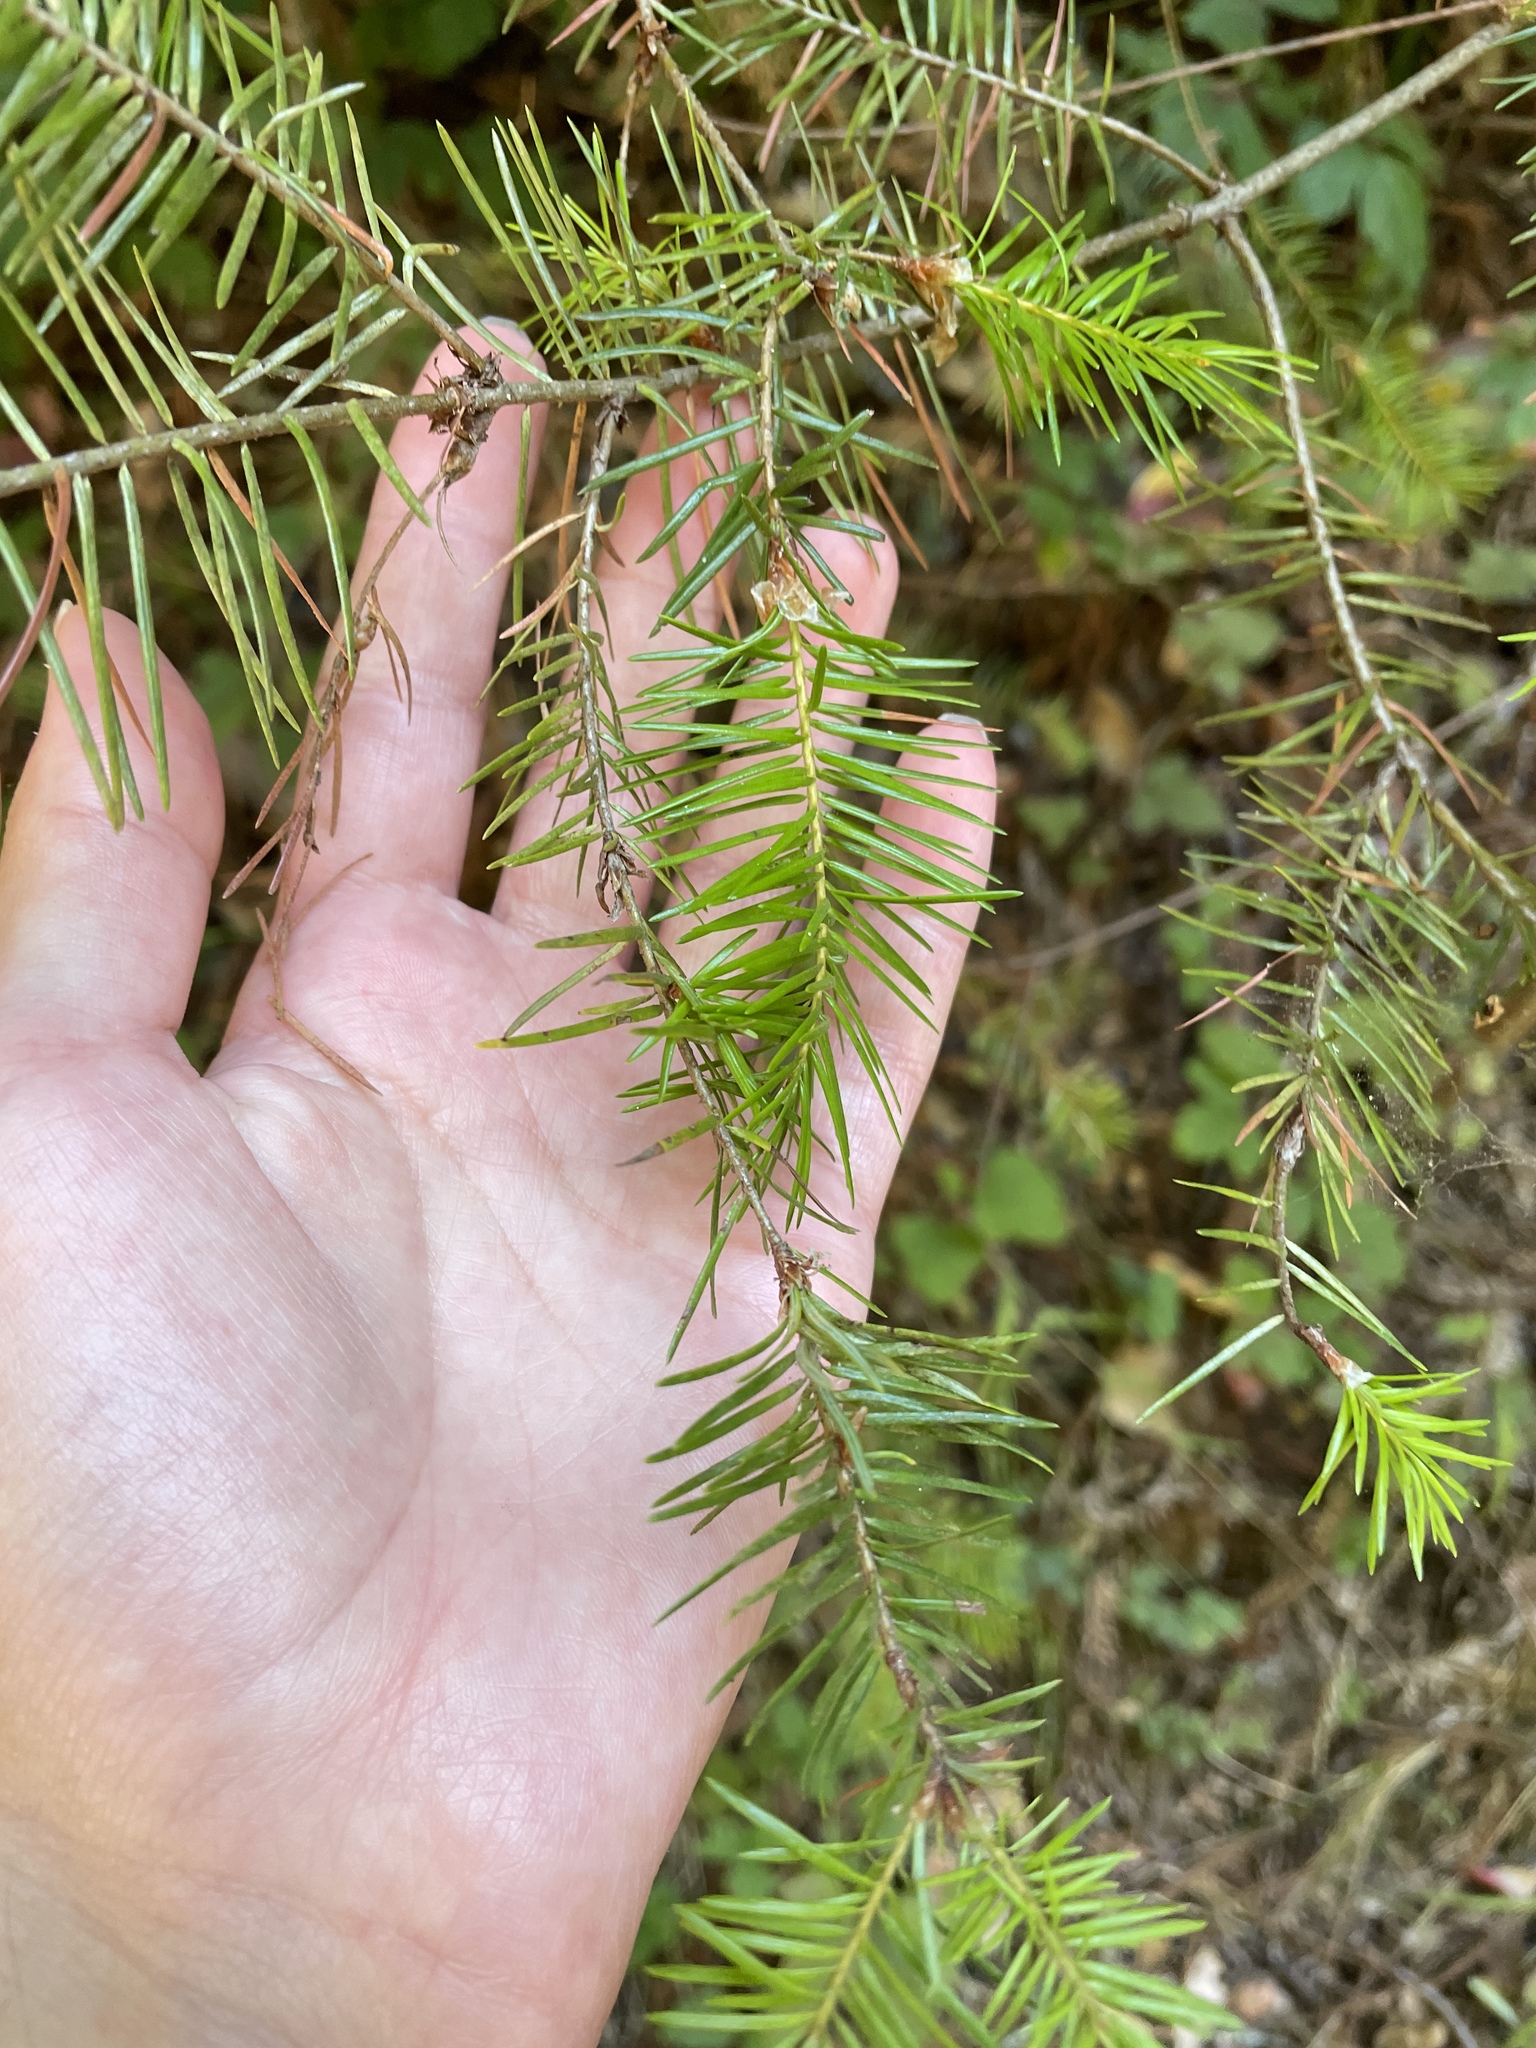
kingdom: Plantae
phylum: Tracheophyta
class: Pinopsida
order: Pinales
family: Pinaceae
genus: Pseudotsuga
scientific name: Pseudotsuga menziesii
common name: Douglas fir
